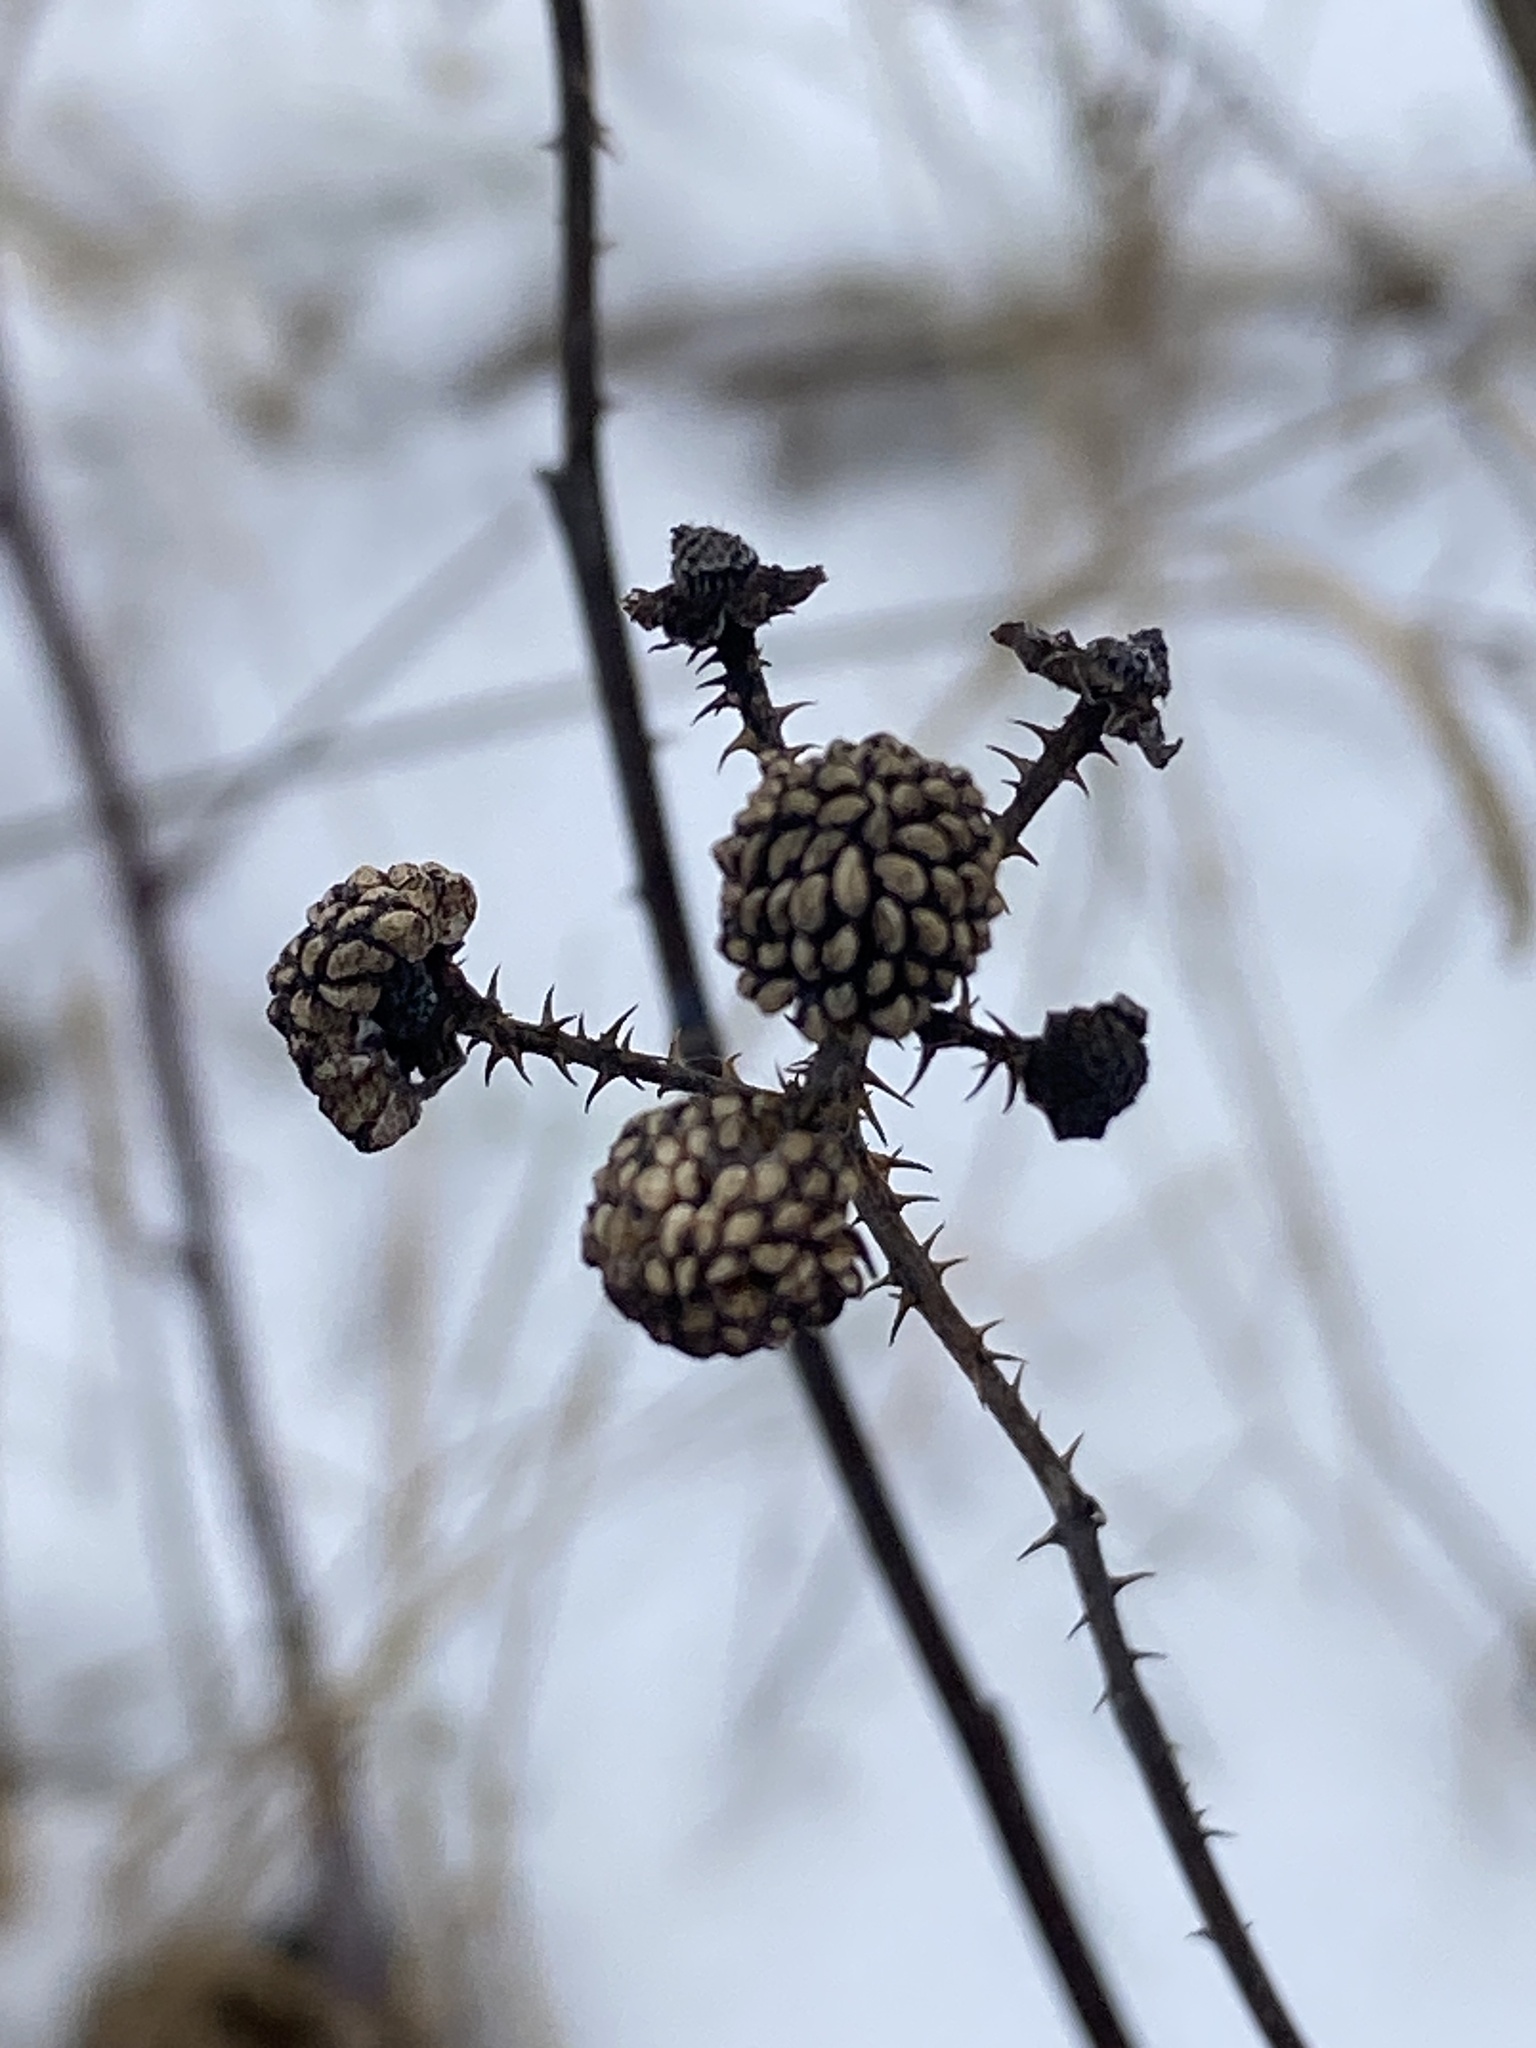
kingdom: Plantae
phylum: Tracheophyta
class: Magnoliopsida
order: Rosales
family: Rosaceae
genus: Rubus
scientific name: Rubus occidentalis
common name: Black raspberry
